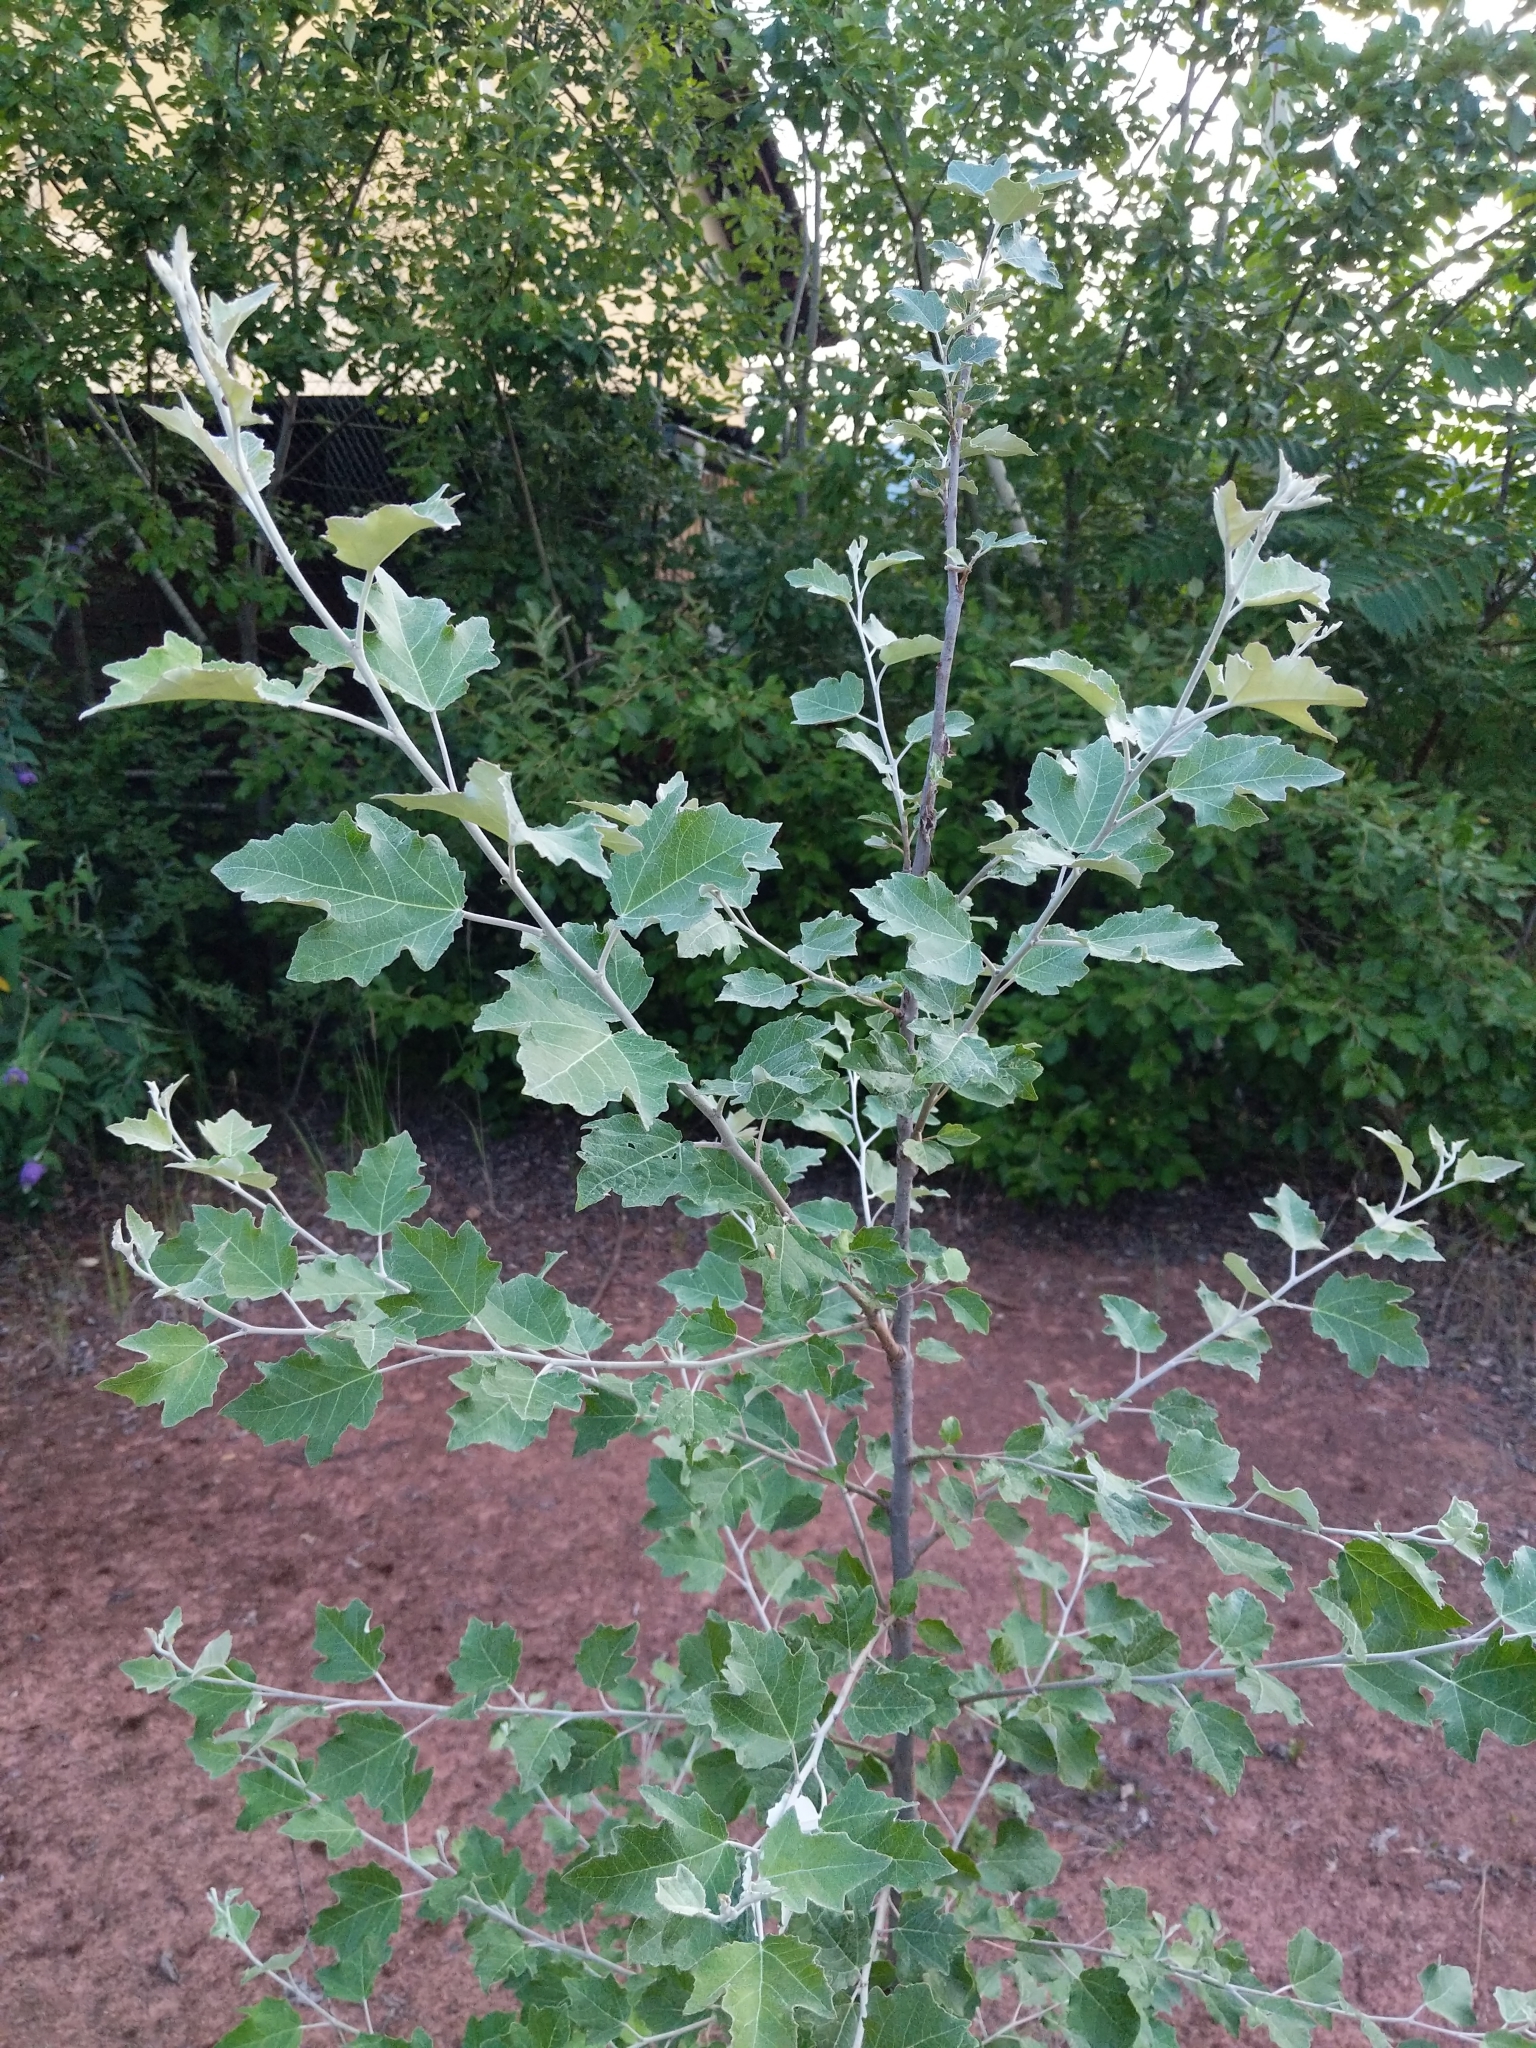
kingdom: Plantae
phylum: Tracheophyta
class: Magnoliopsida
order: Malpighiales
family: Salicaceae
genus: Populus
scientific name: Populus alba
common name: White poplar
